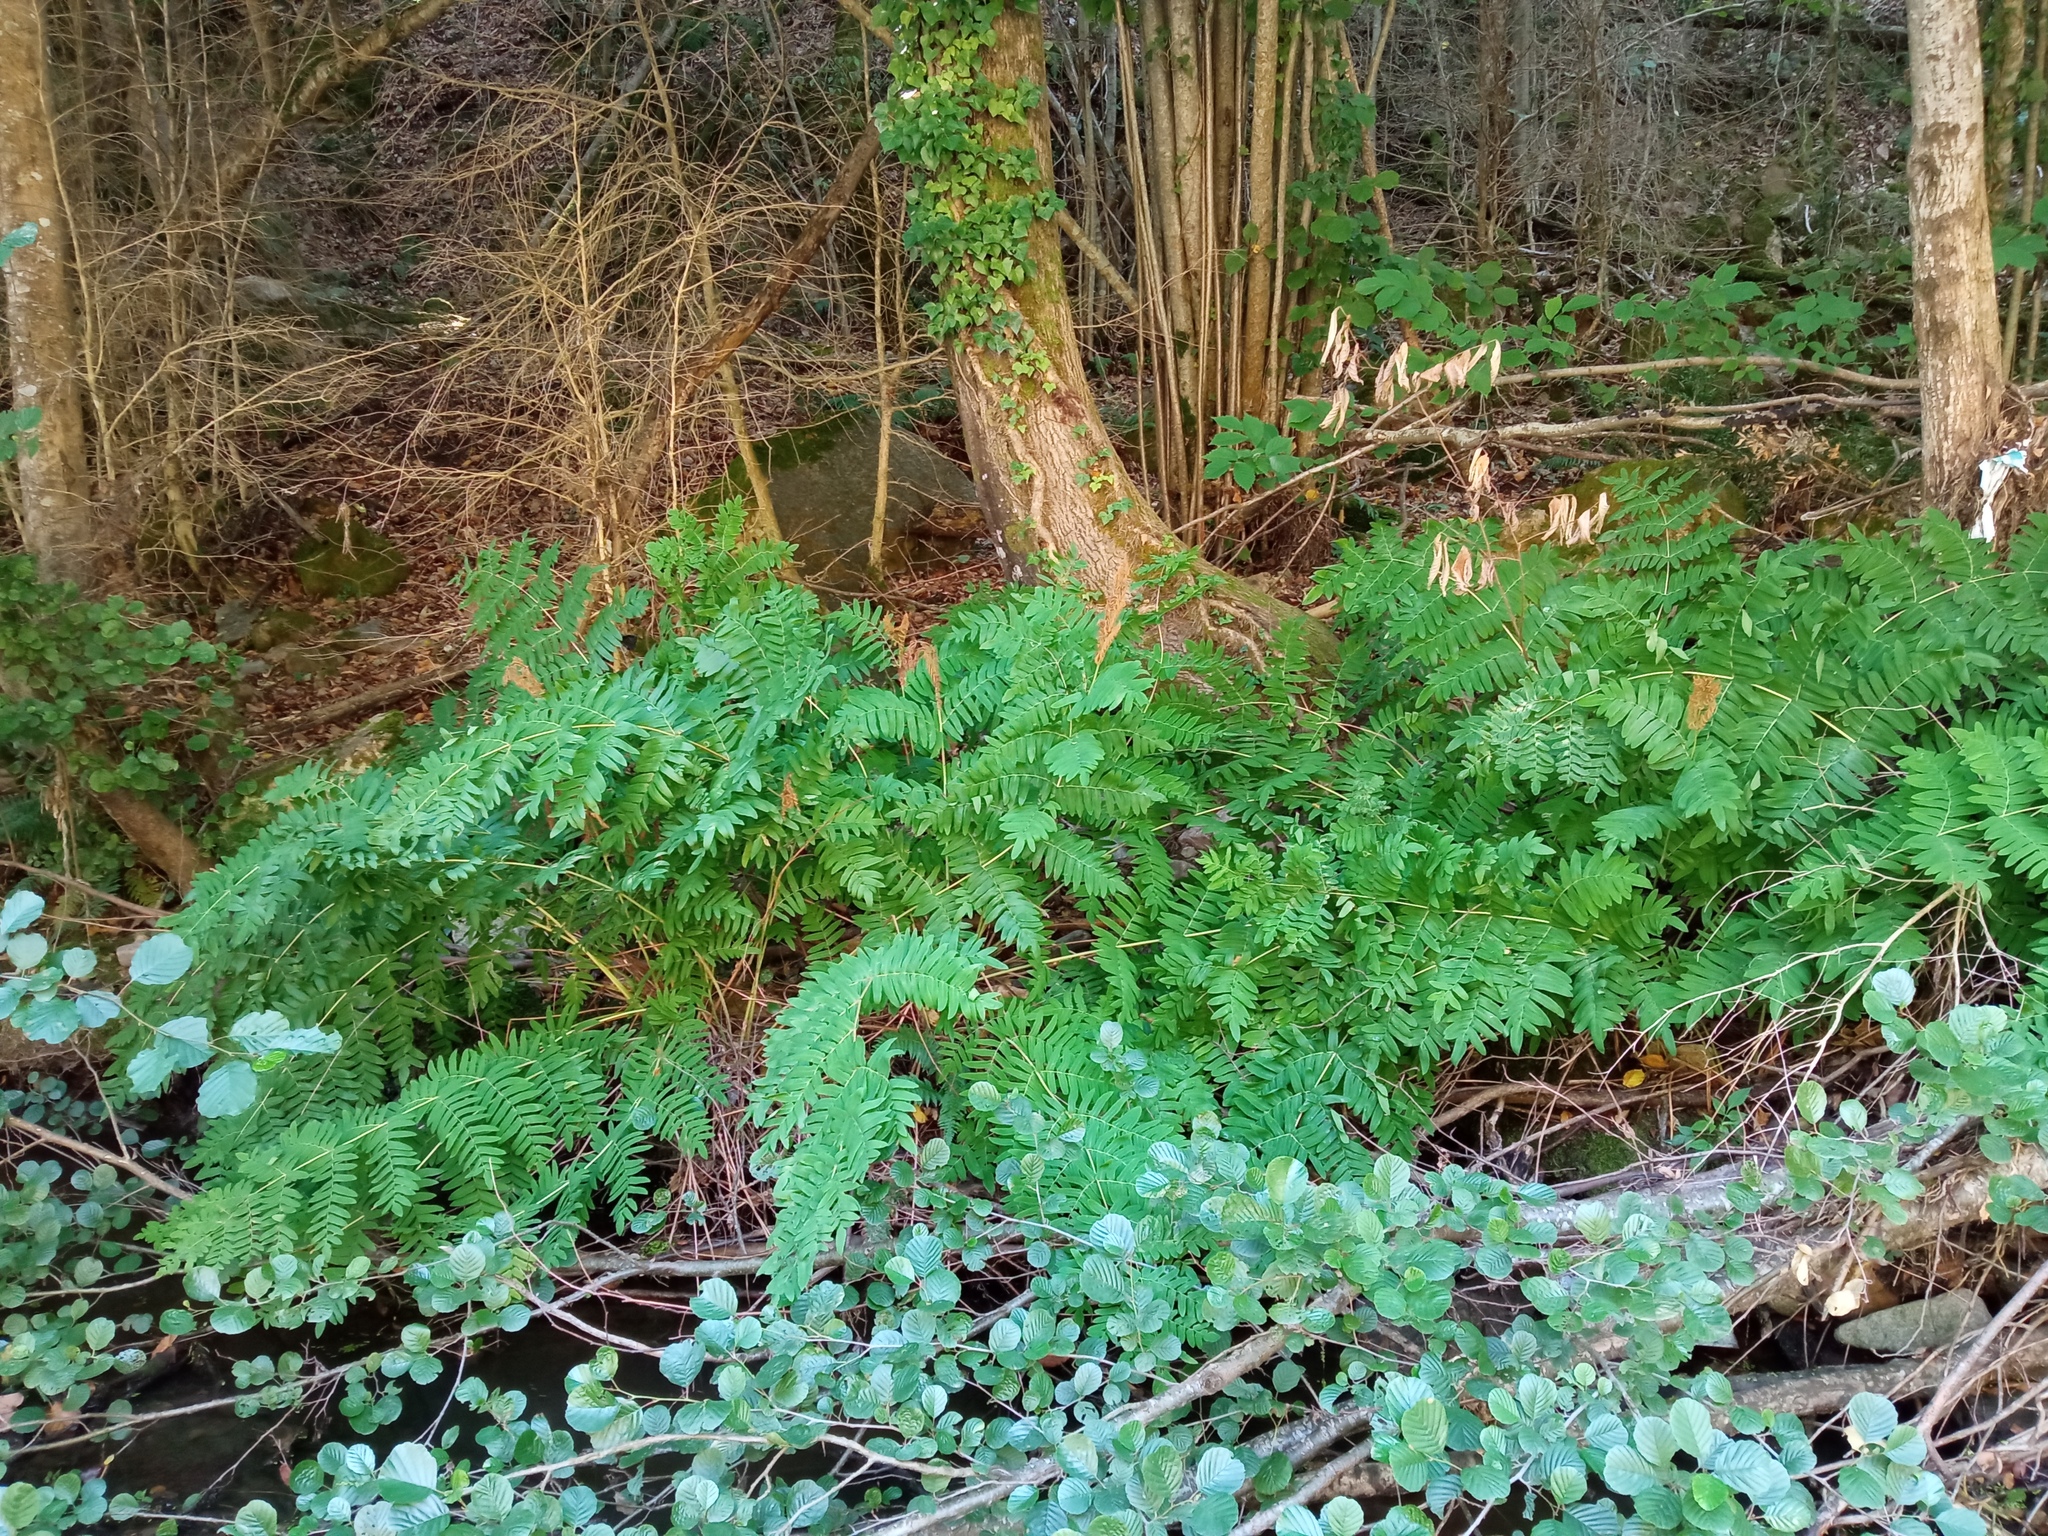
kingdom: Plantae
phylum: Tracheophyta
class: Polypodiopsida
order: Osmundales
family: Osmundaceae
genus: Osmunda
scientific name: Osmunda regalis
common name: Royal fern
